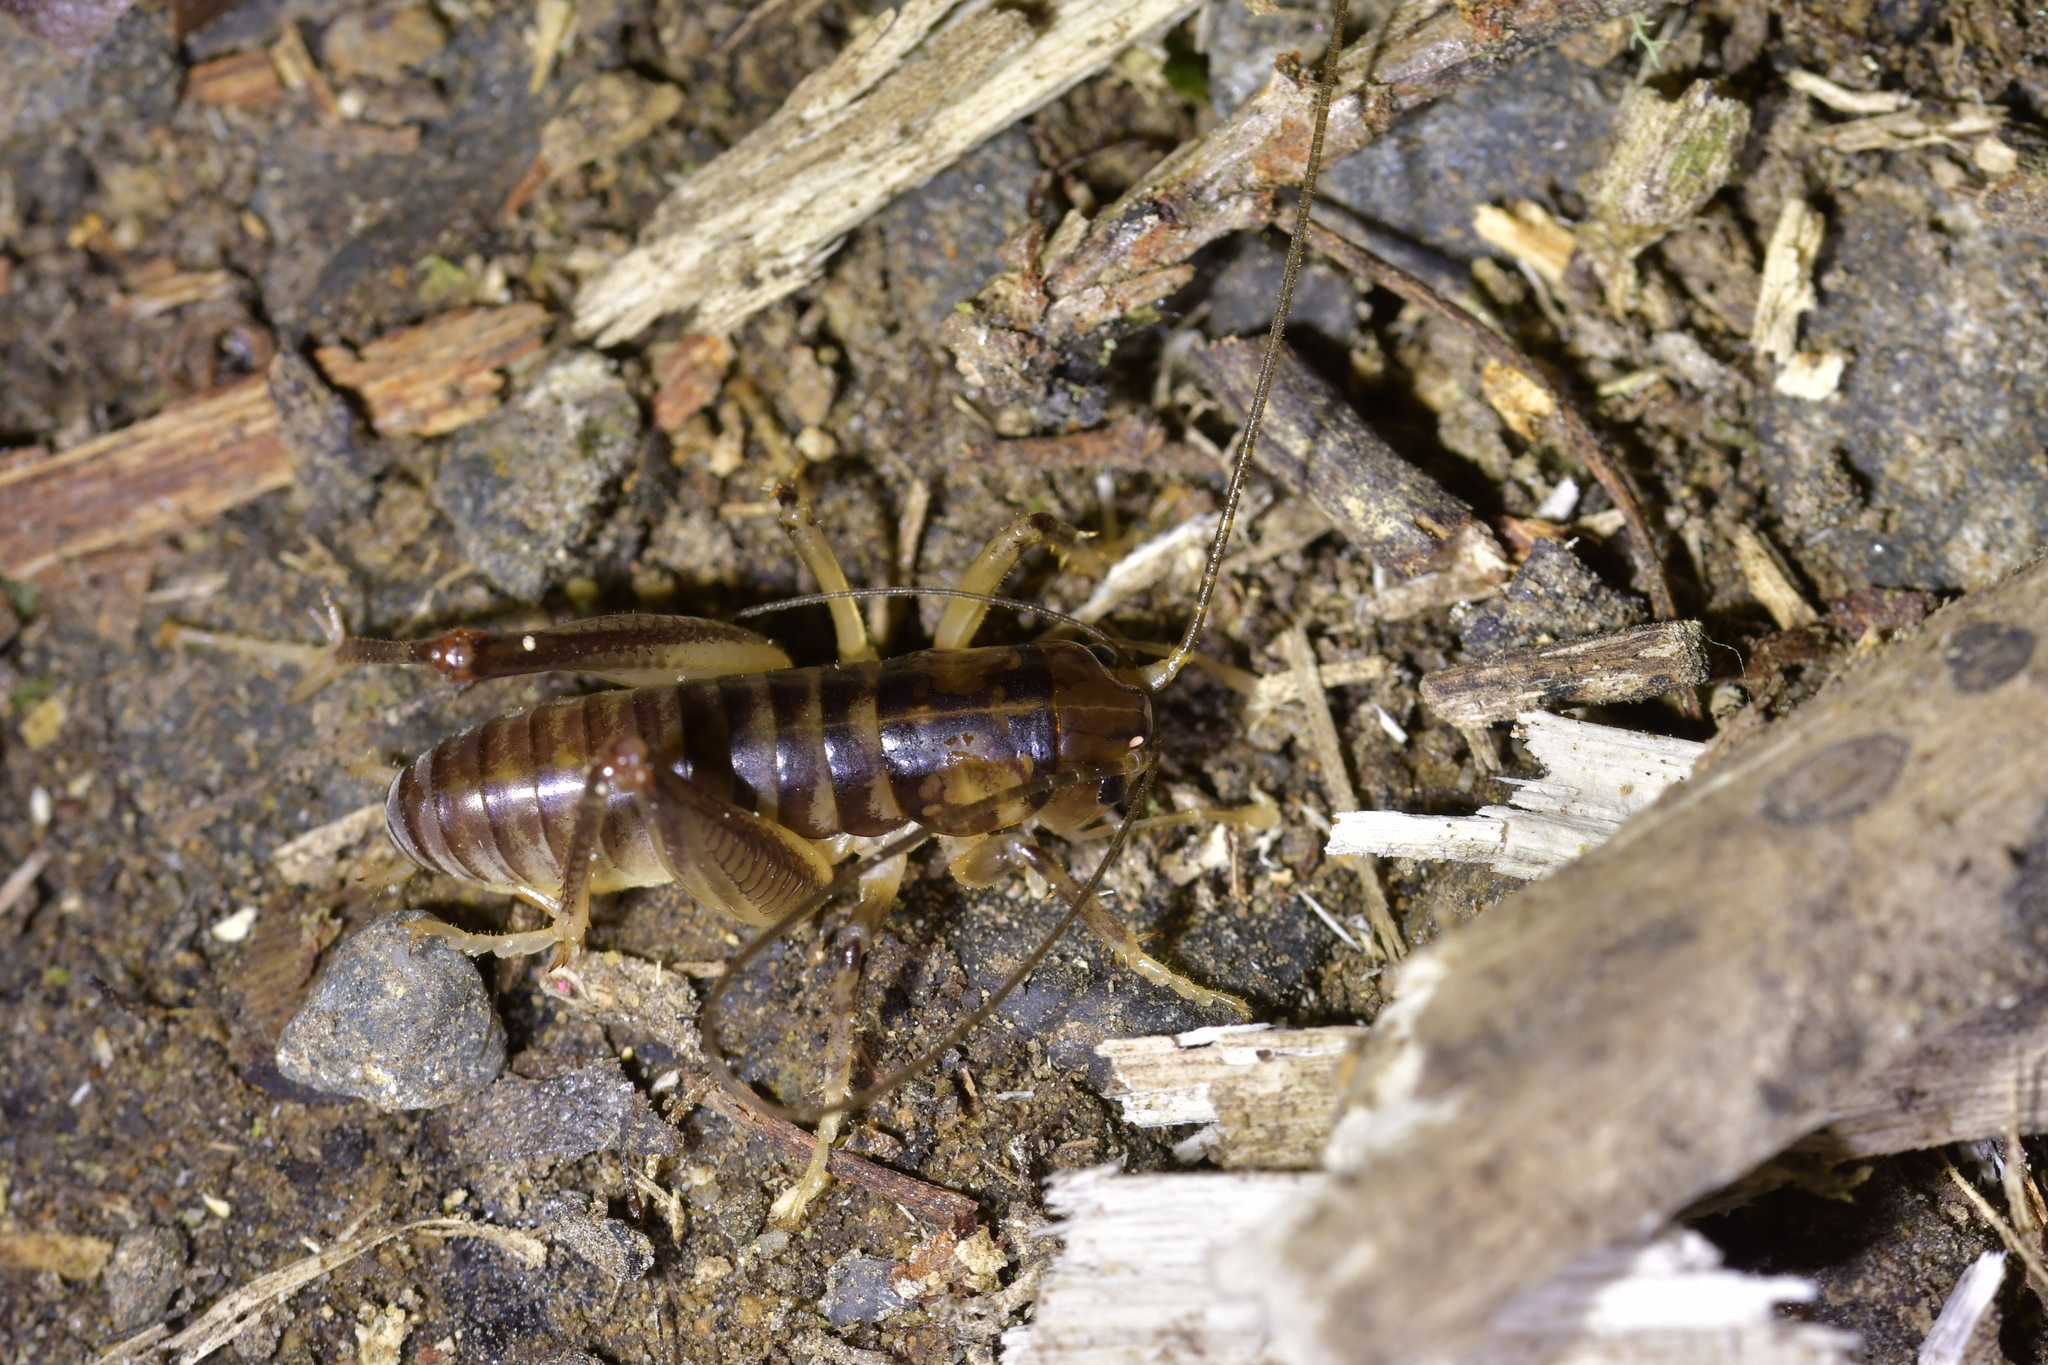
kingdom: Animalia
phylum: Arthropoda
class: Insecta
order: Orthoptera
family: Anostostomatidae
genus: Hemiandrus
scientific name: Hemiandrus pallitarsis
